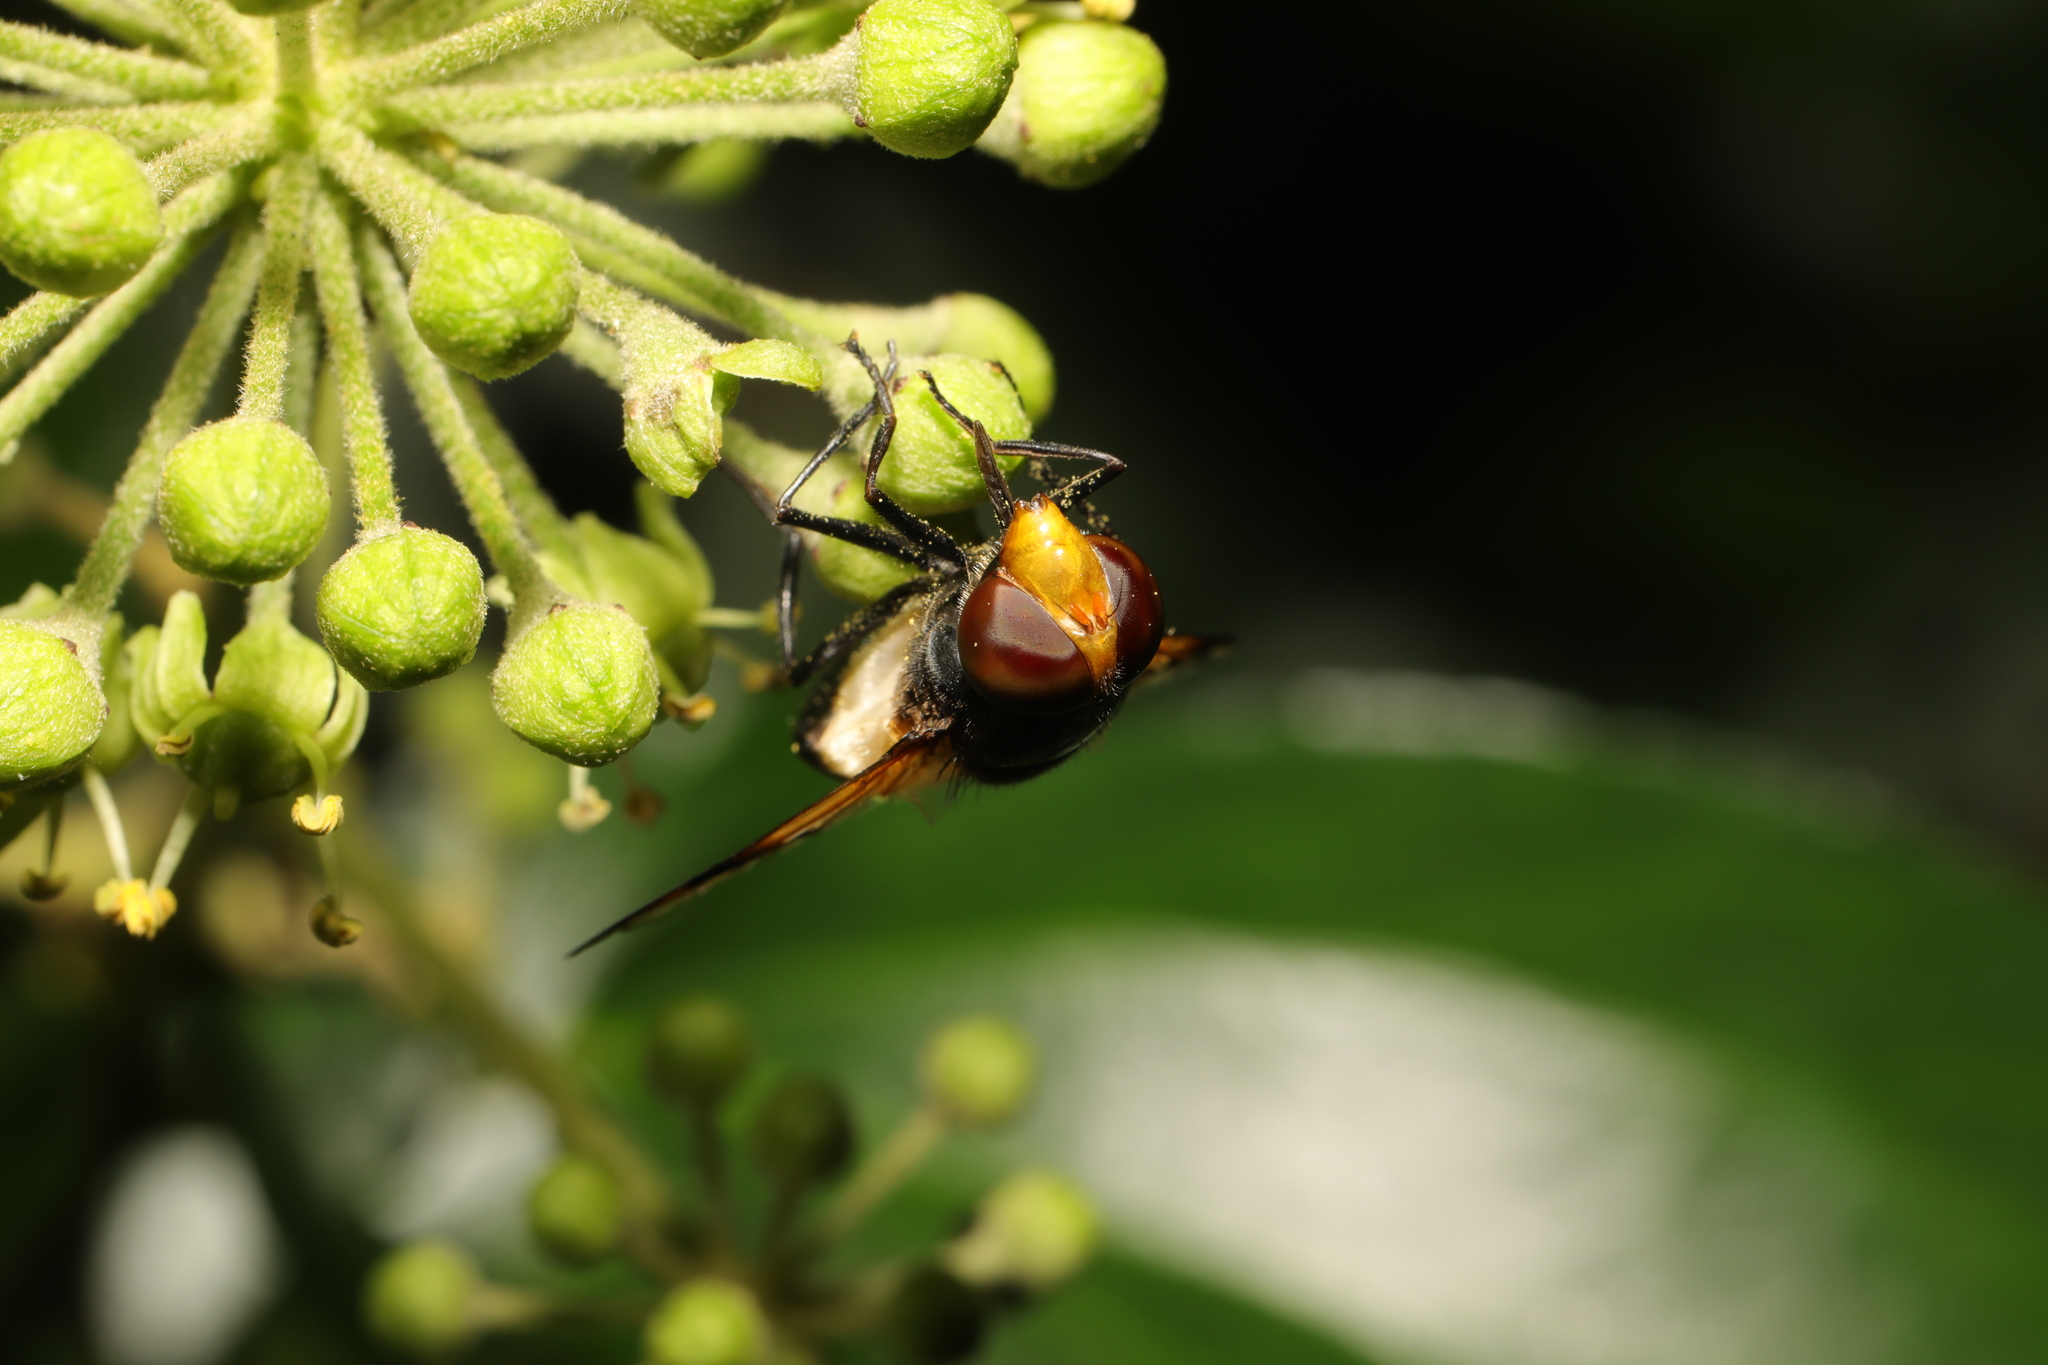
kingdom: Animalia
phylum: Arthropoda
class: Insecta
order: Diptera
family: Syrphidae
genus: Volucella
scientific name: Volucella pellucens
